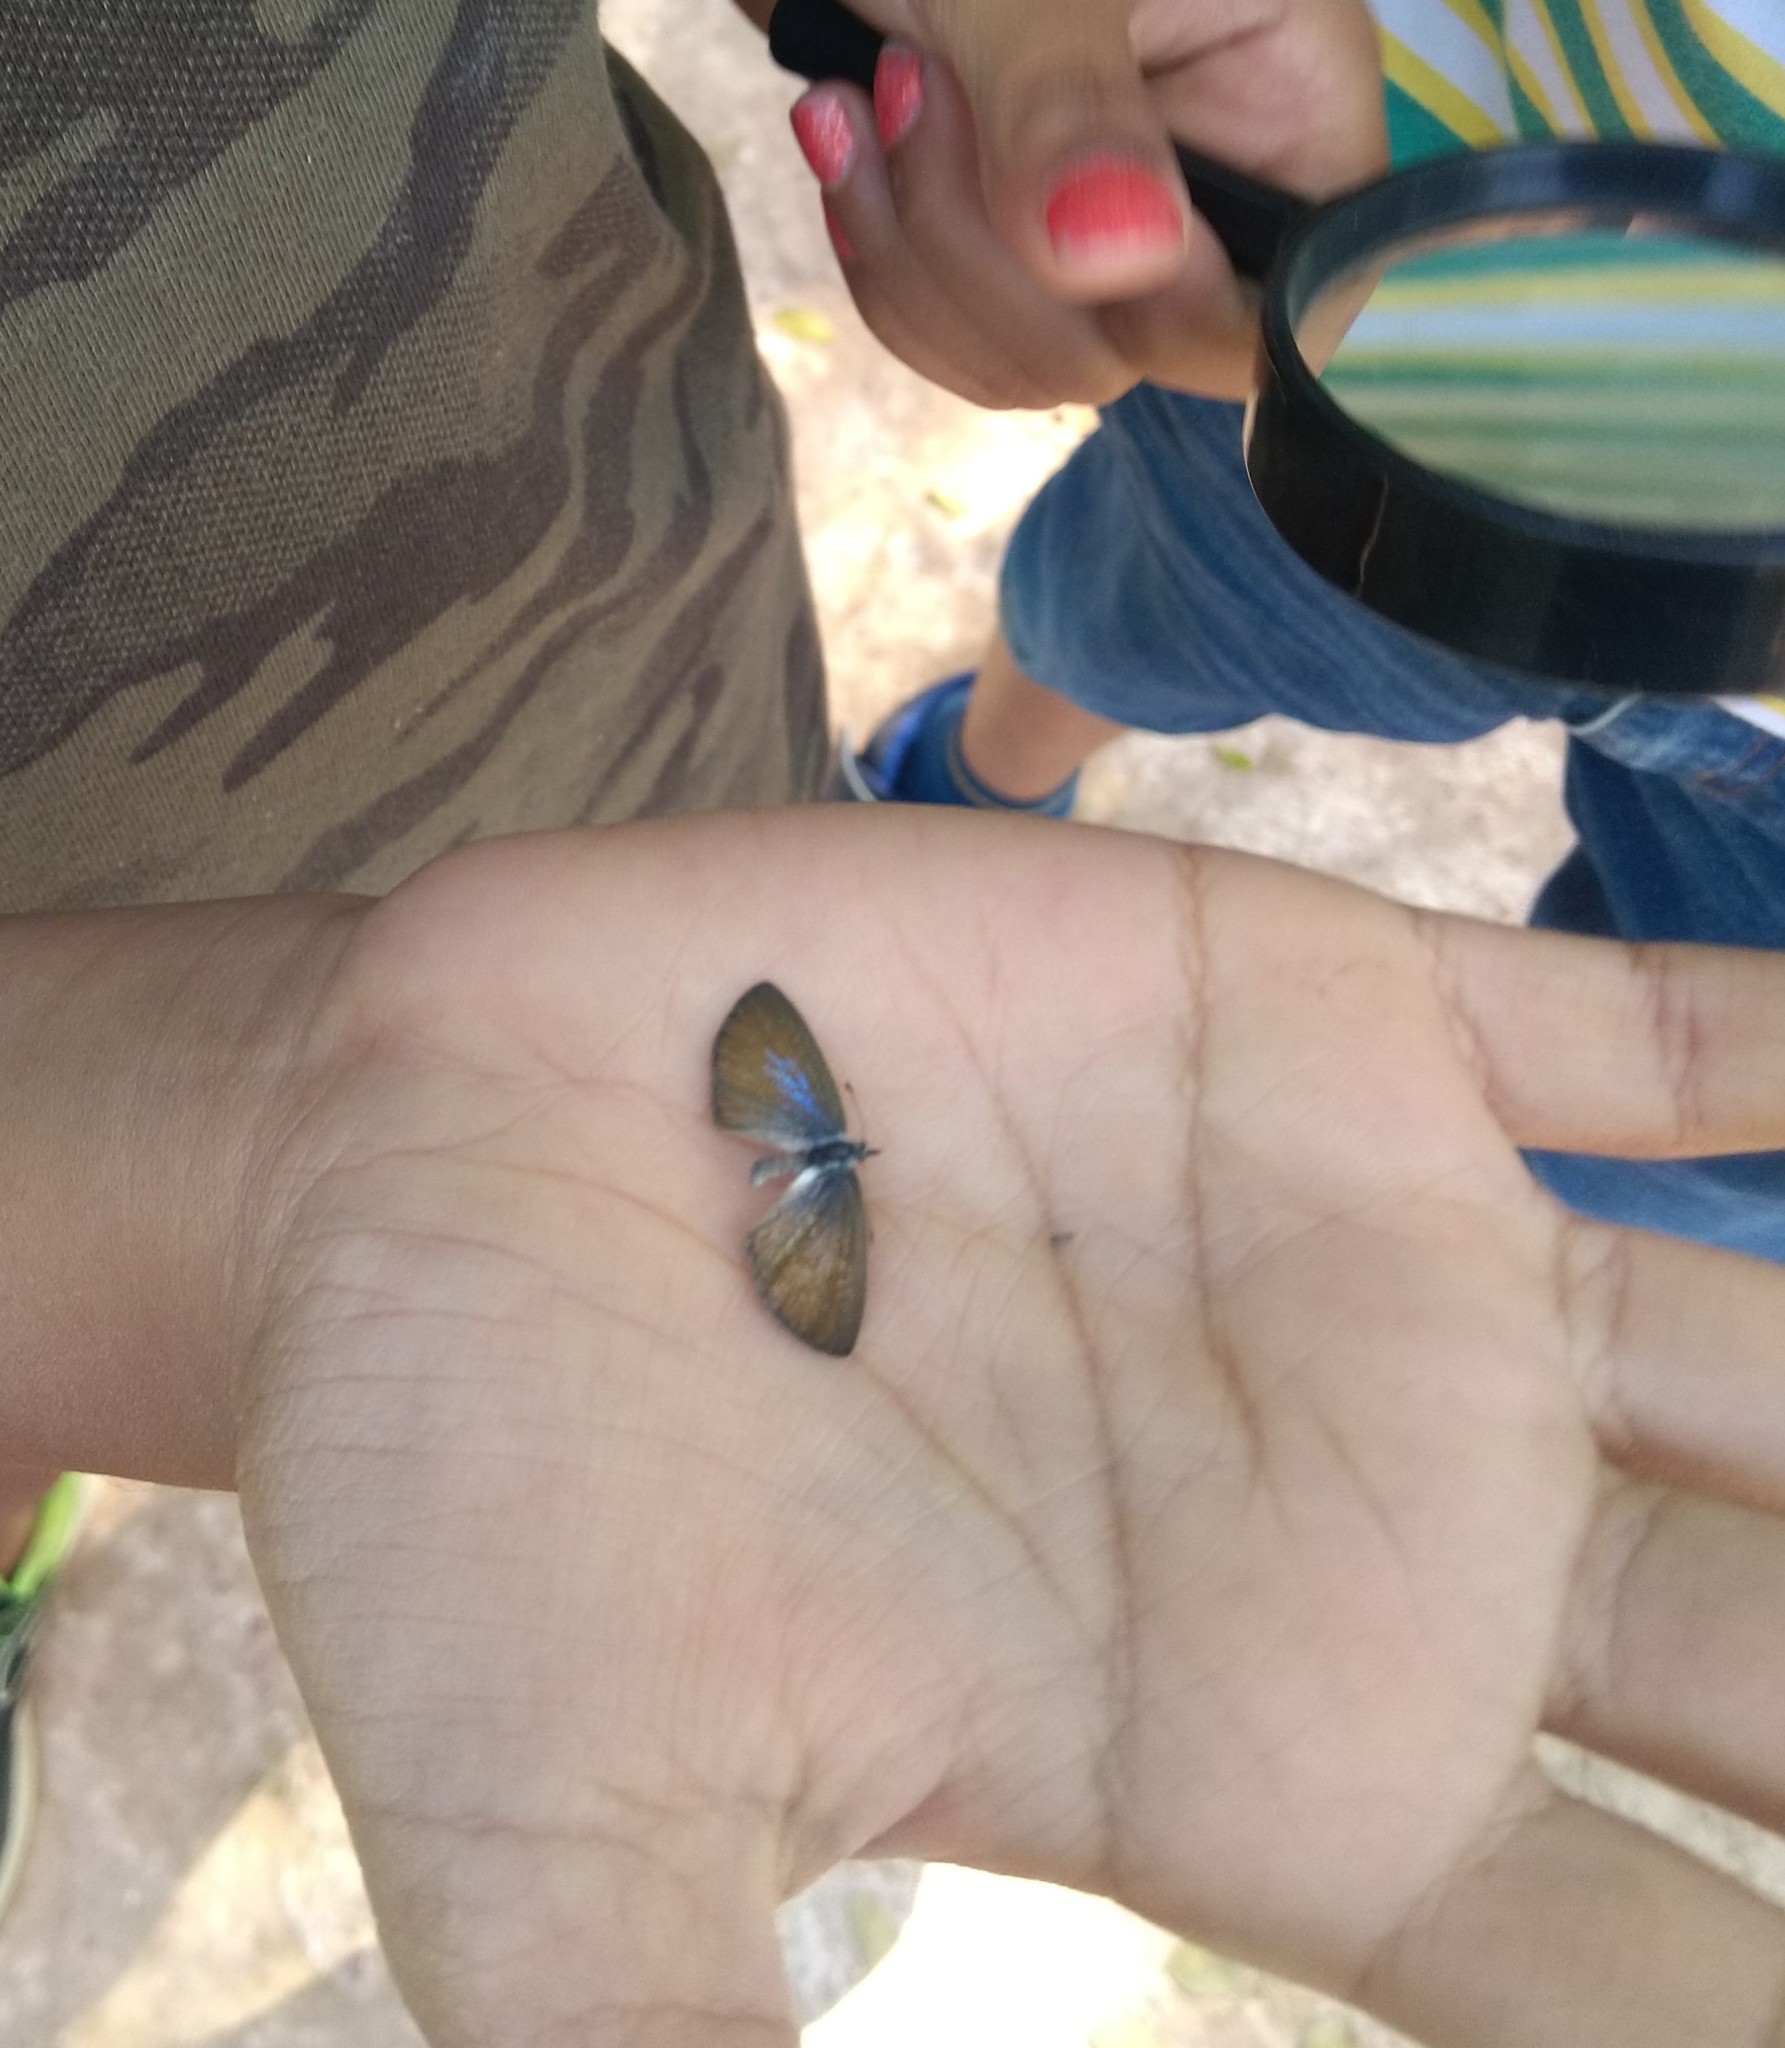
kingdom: Animalia
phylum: Arthropoda
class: Insecta
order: Lepidoptera
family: Lycaenidae
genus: Prosotas
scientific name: Prosotas dubiosa
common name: Tailless lineblue
